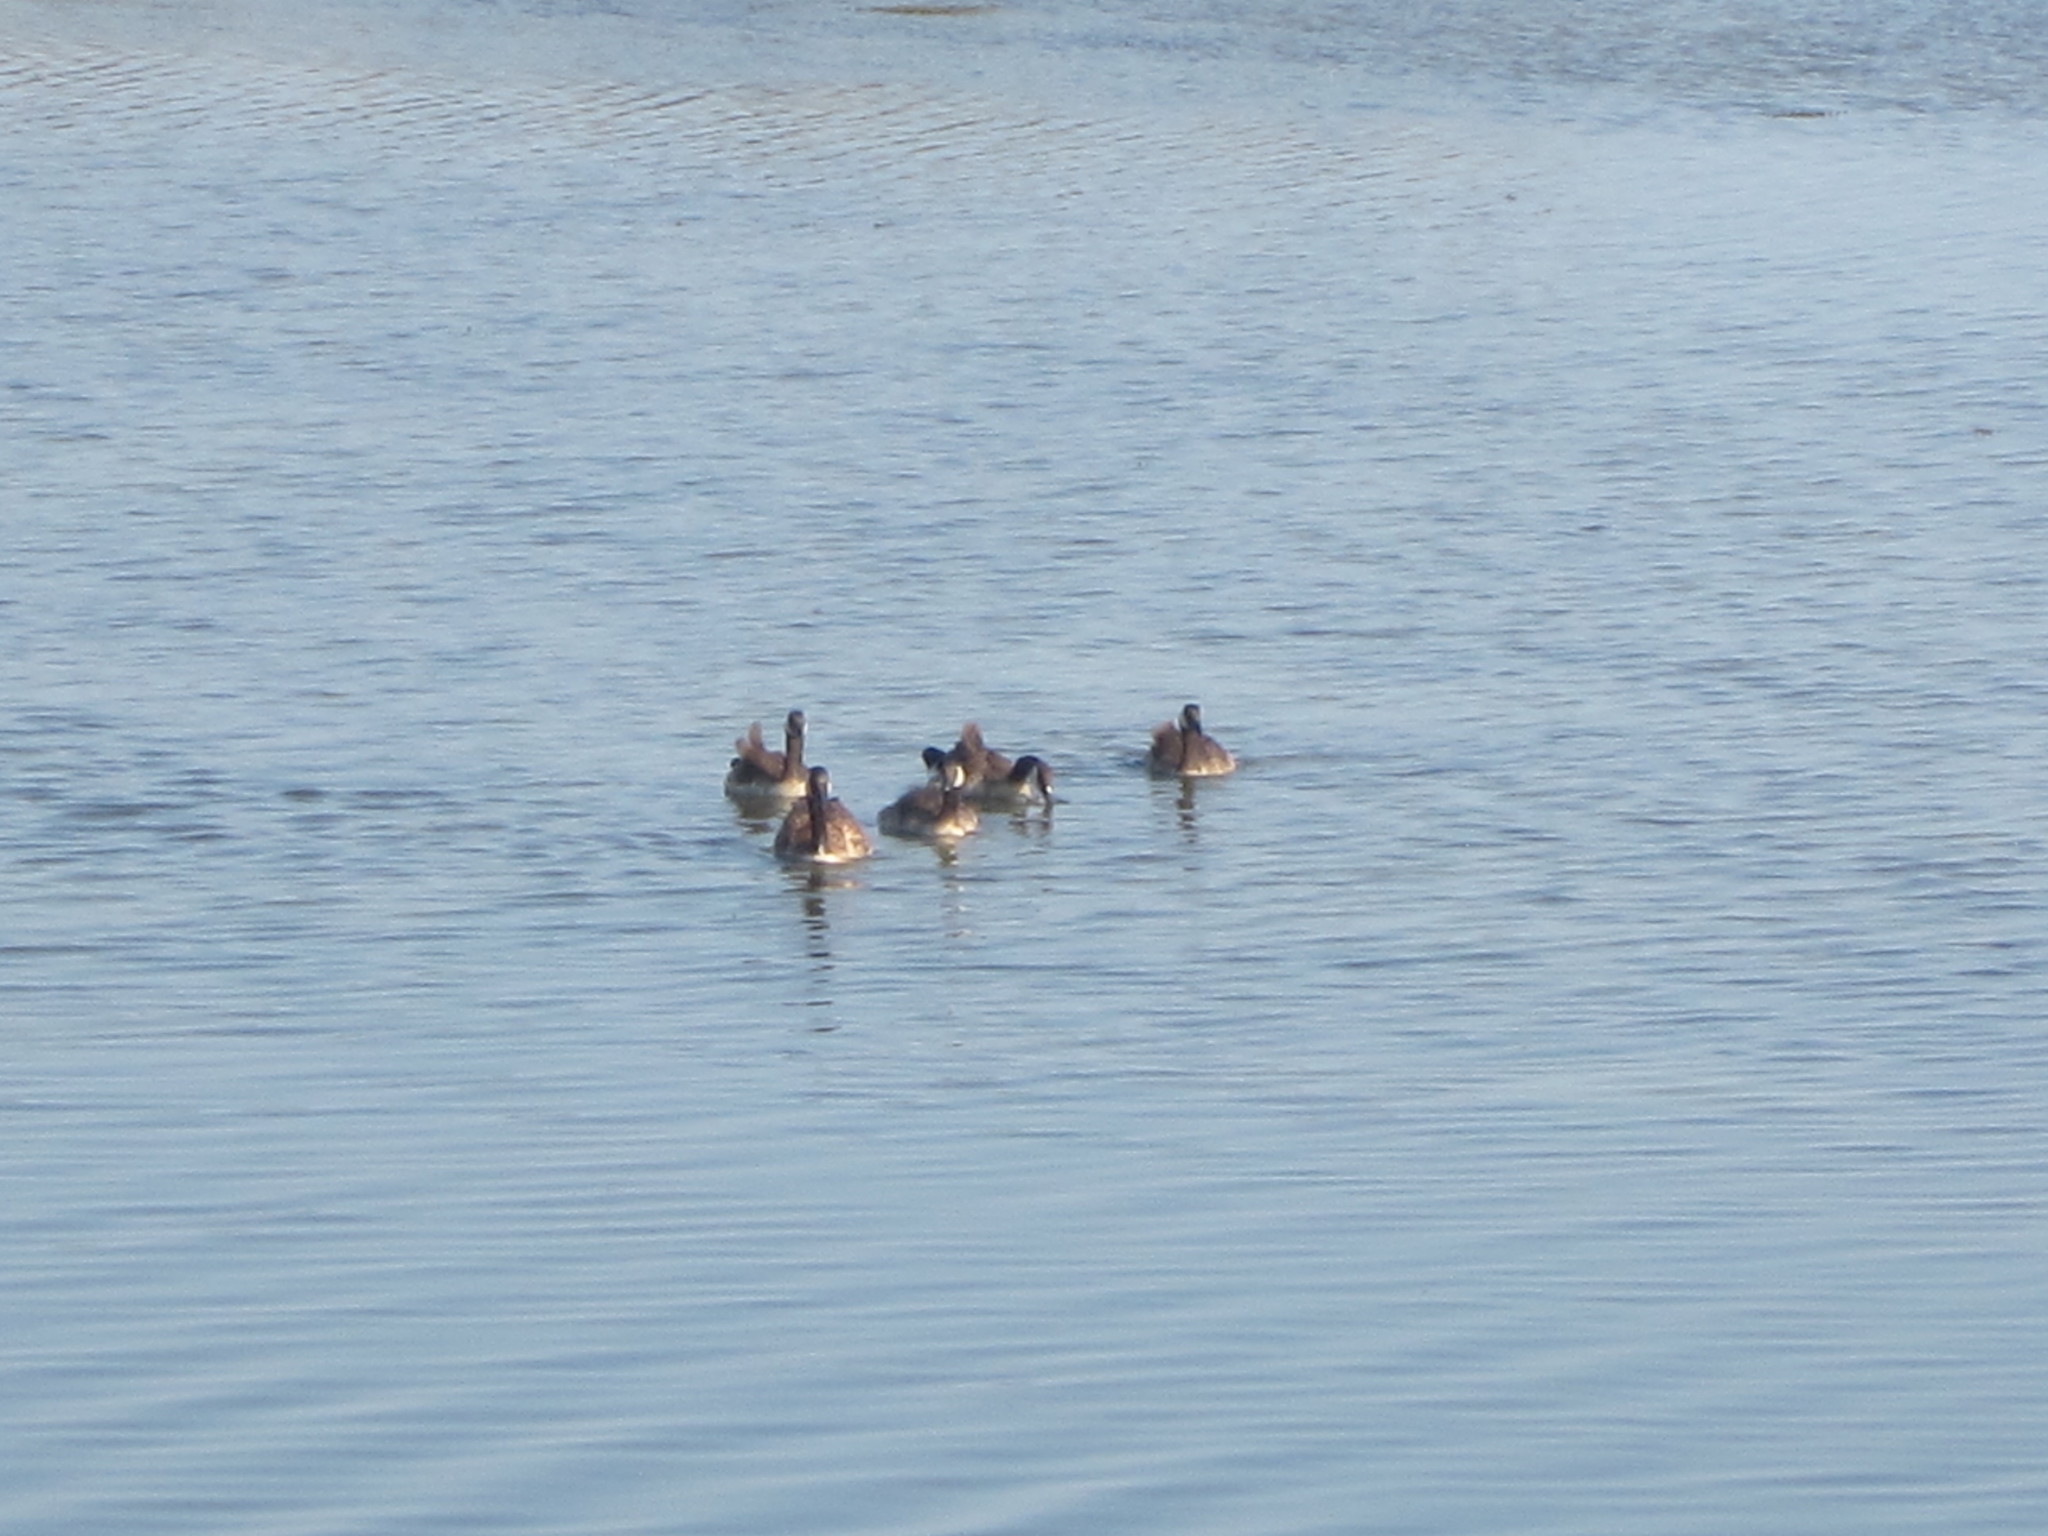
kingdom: Animalia
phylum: Chordata
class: Aves
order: Anseriformes
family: Anatidae
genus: Branta
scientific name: Branta canadensis
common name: Canada goose
